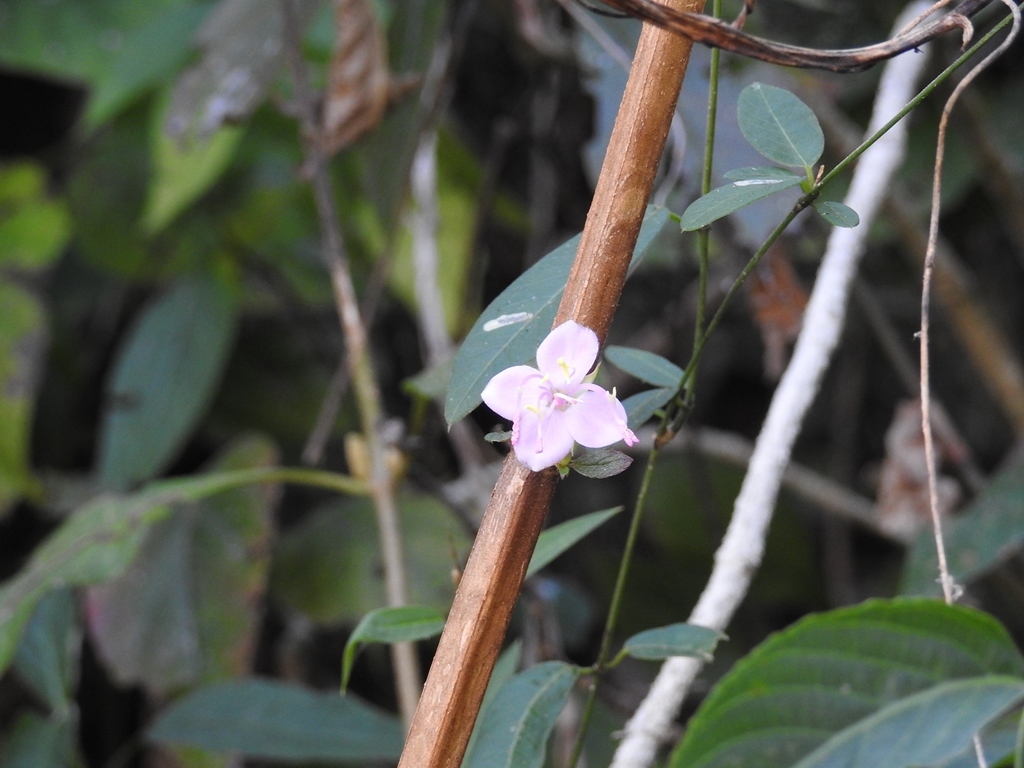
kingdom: Plantae
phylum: Tracheophyta
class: Magnoliopsida
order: Myrtales
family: Melastomataceae
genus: Heterocentron
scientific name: Heterocentron muricatum
